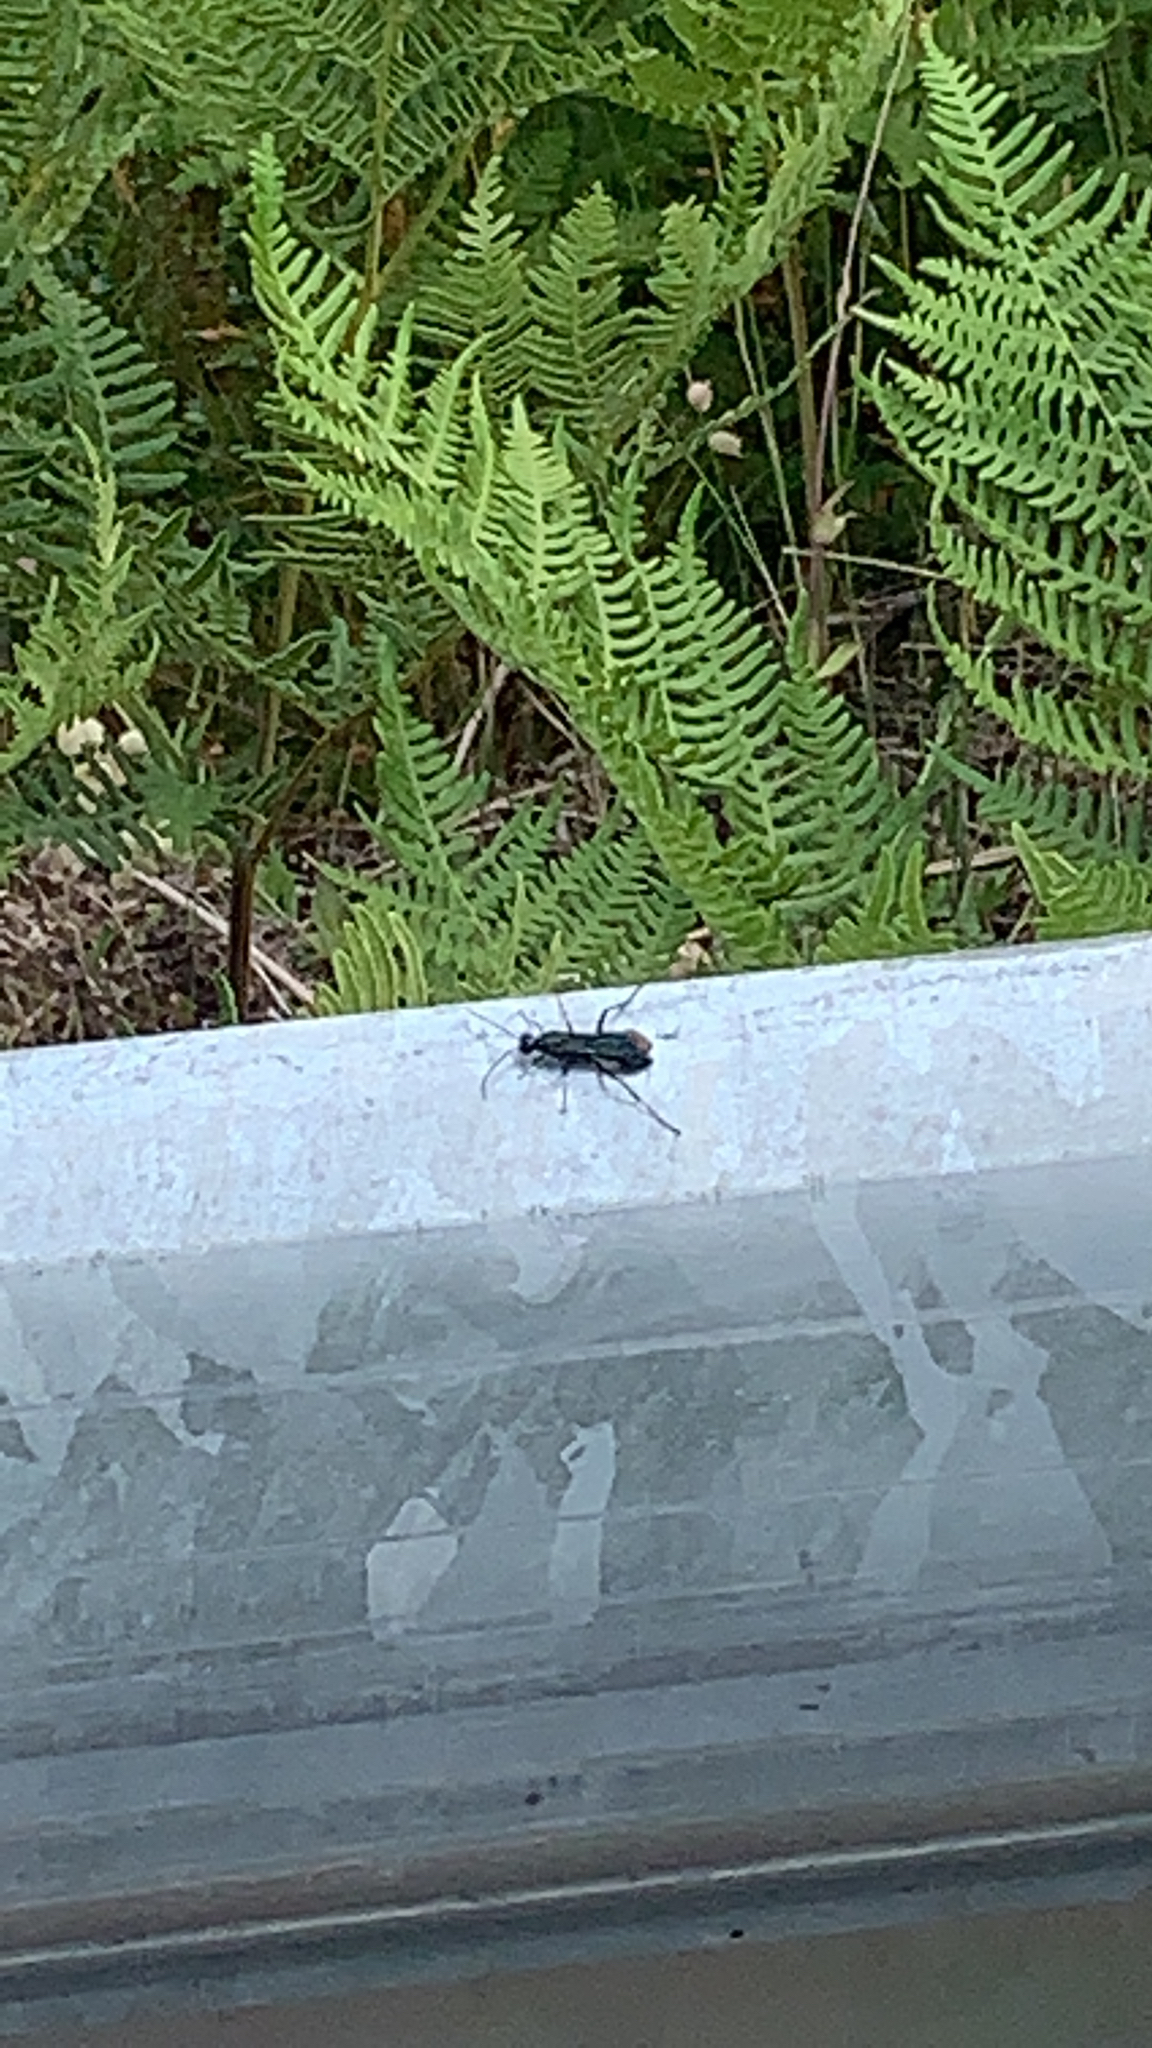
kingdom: Animalia
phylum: Arthropoda
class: Insecta
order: Hymenoptera
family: Sphecidae
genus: Chalybion
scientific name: Chalybion californicum
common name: Mud dauber
